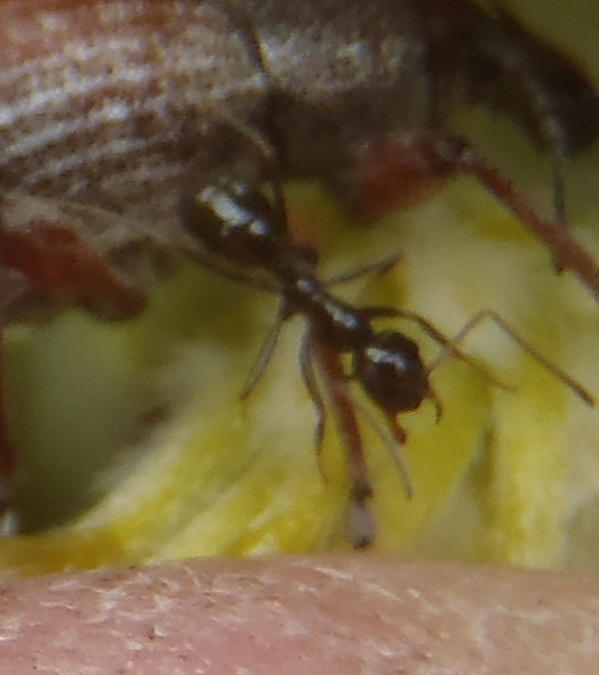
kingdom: Animalia
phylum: Arthropoda
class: Insecta
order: Hymenoptera
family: Formicidae
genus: Anoplolepis
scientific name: Anoplolepis steingroeveri
